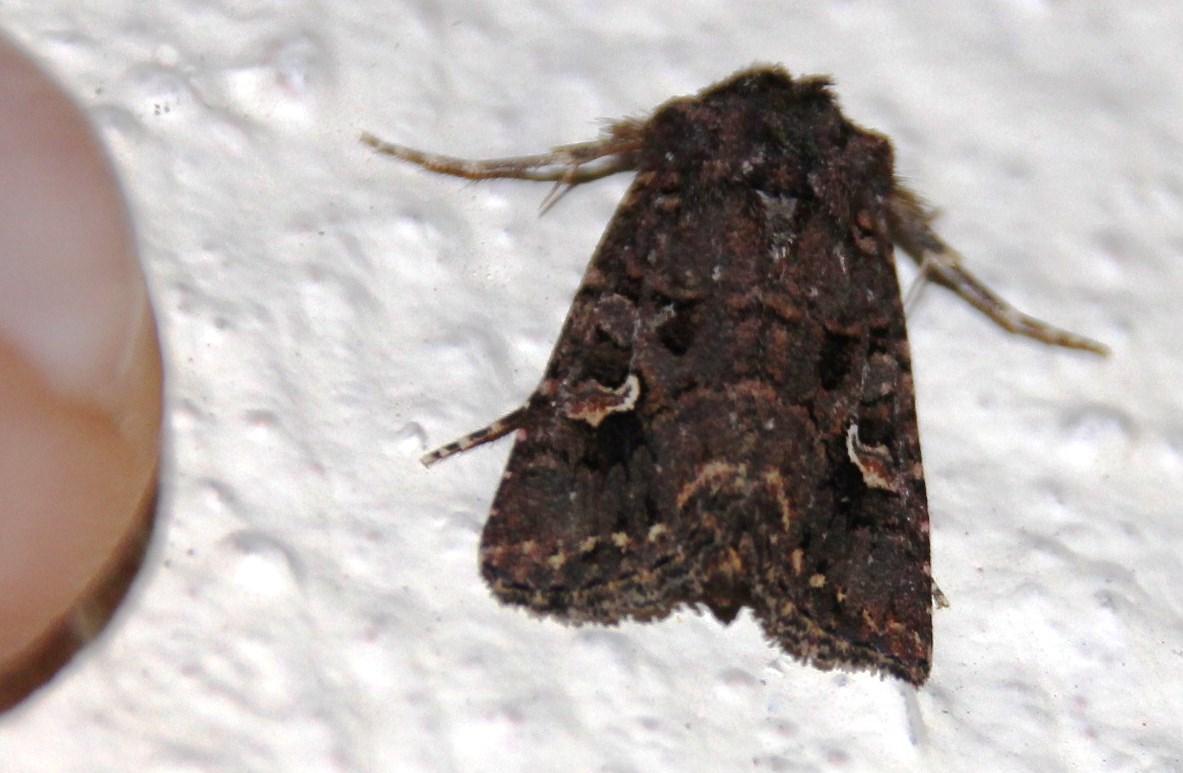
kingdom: Animalia
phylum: Arthropoda
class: Insecta
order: Lepidoptera
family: Noctuidae
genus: Tycomarptes
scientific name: Tycomarptes inferior
